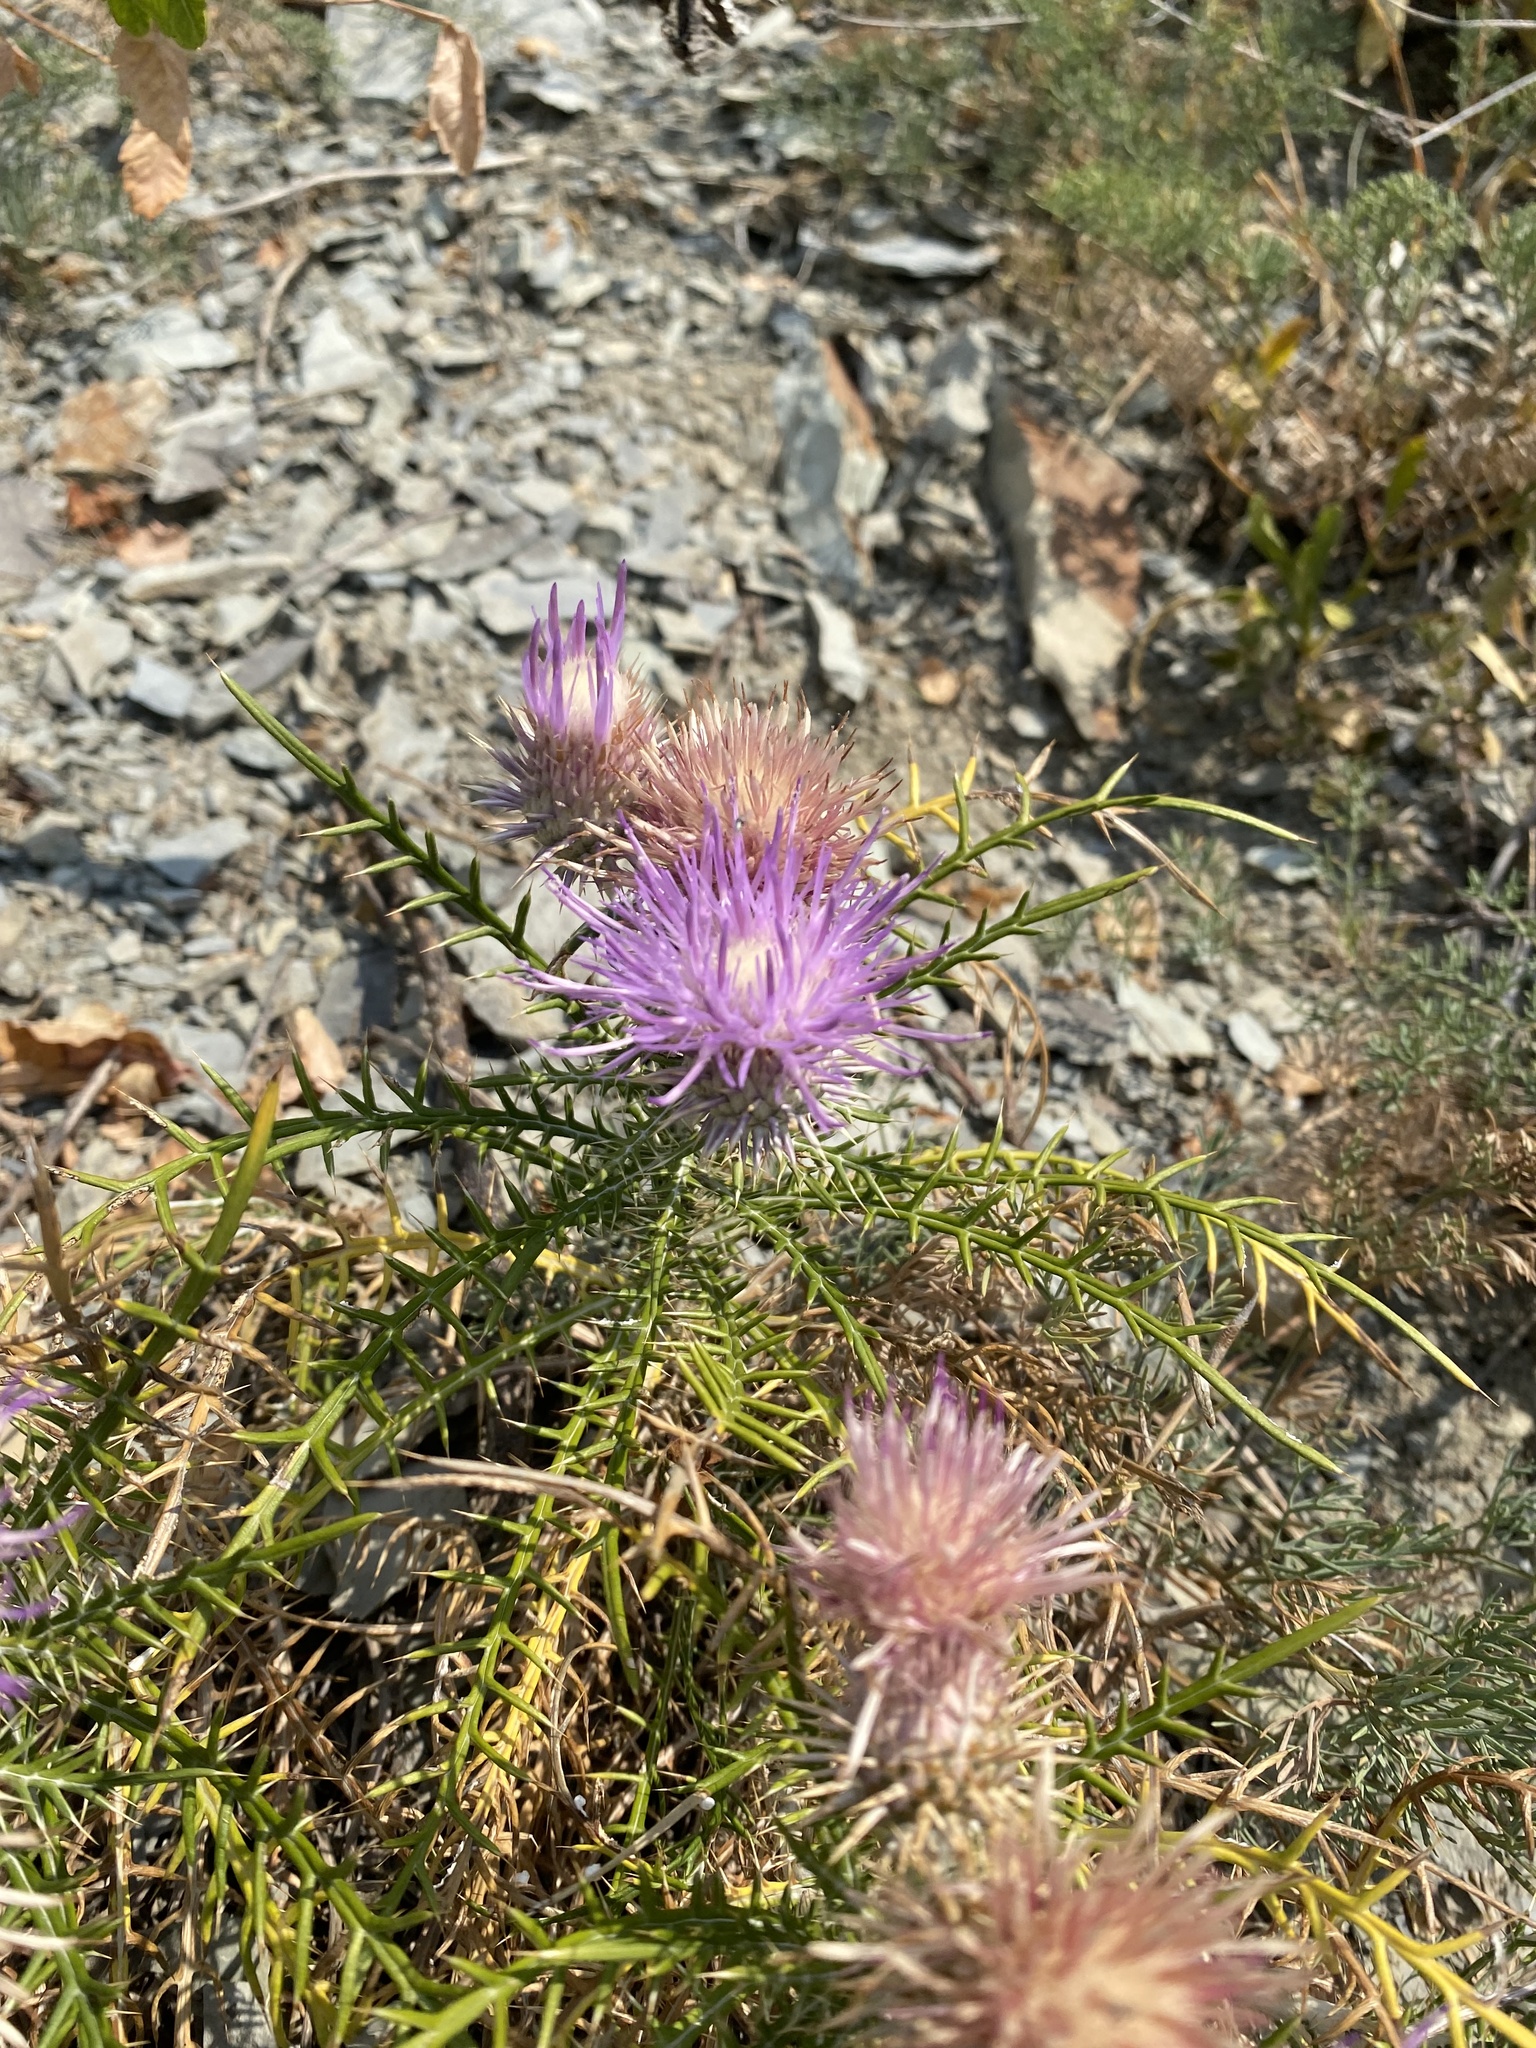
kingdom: Plantae
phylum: Tracheophyta
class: Magnoliopsida
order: Asterales
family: Asteraceae
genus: Ptilostemon
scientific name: Ptilostemon echinocephalus
